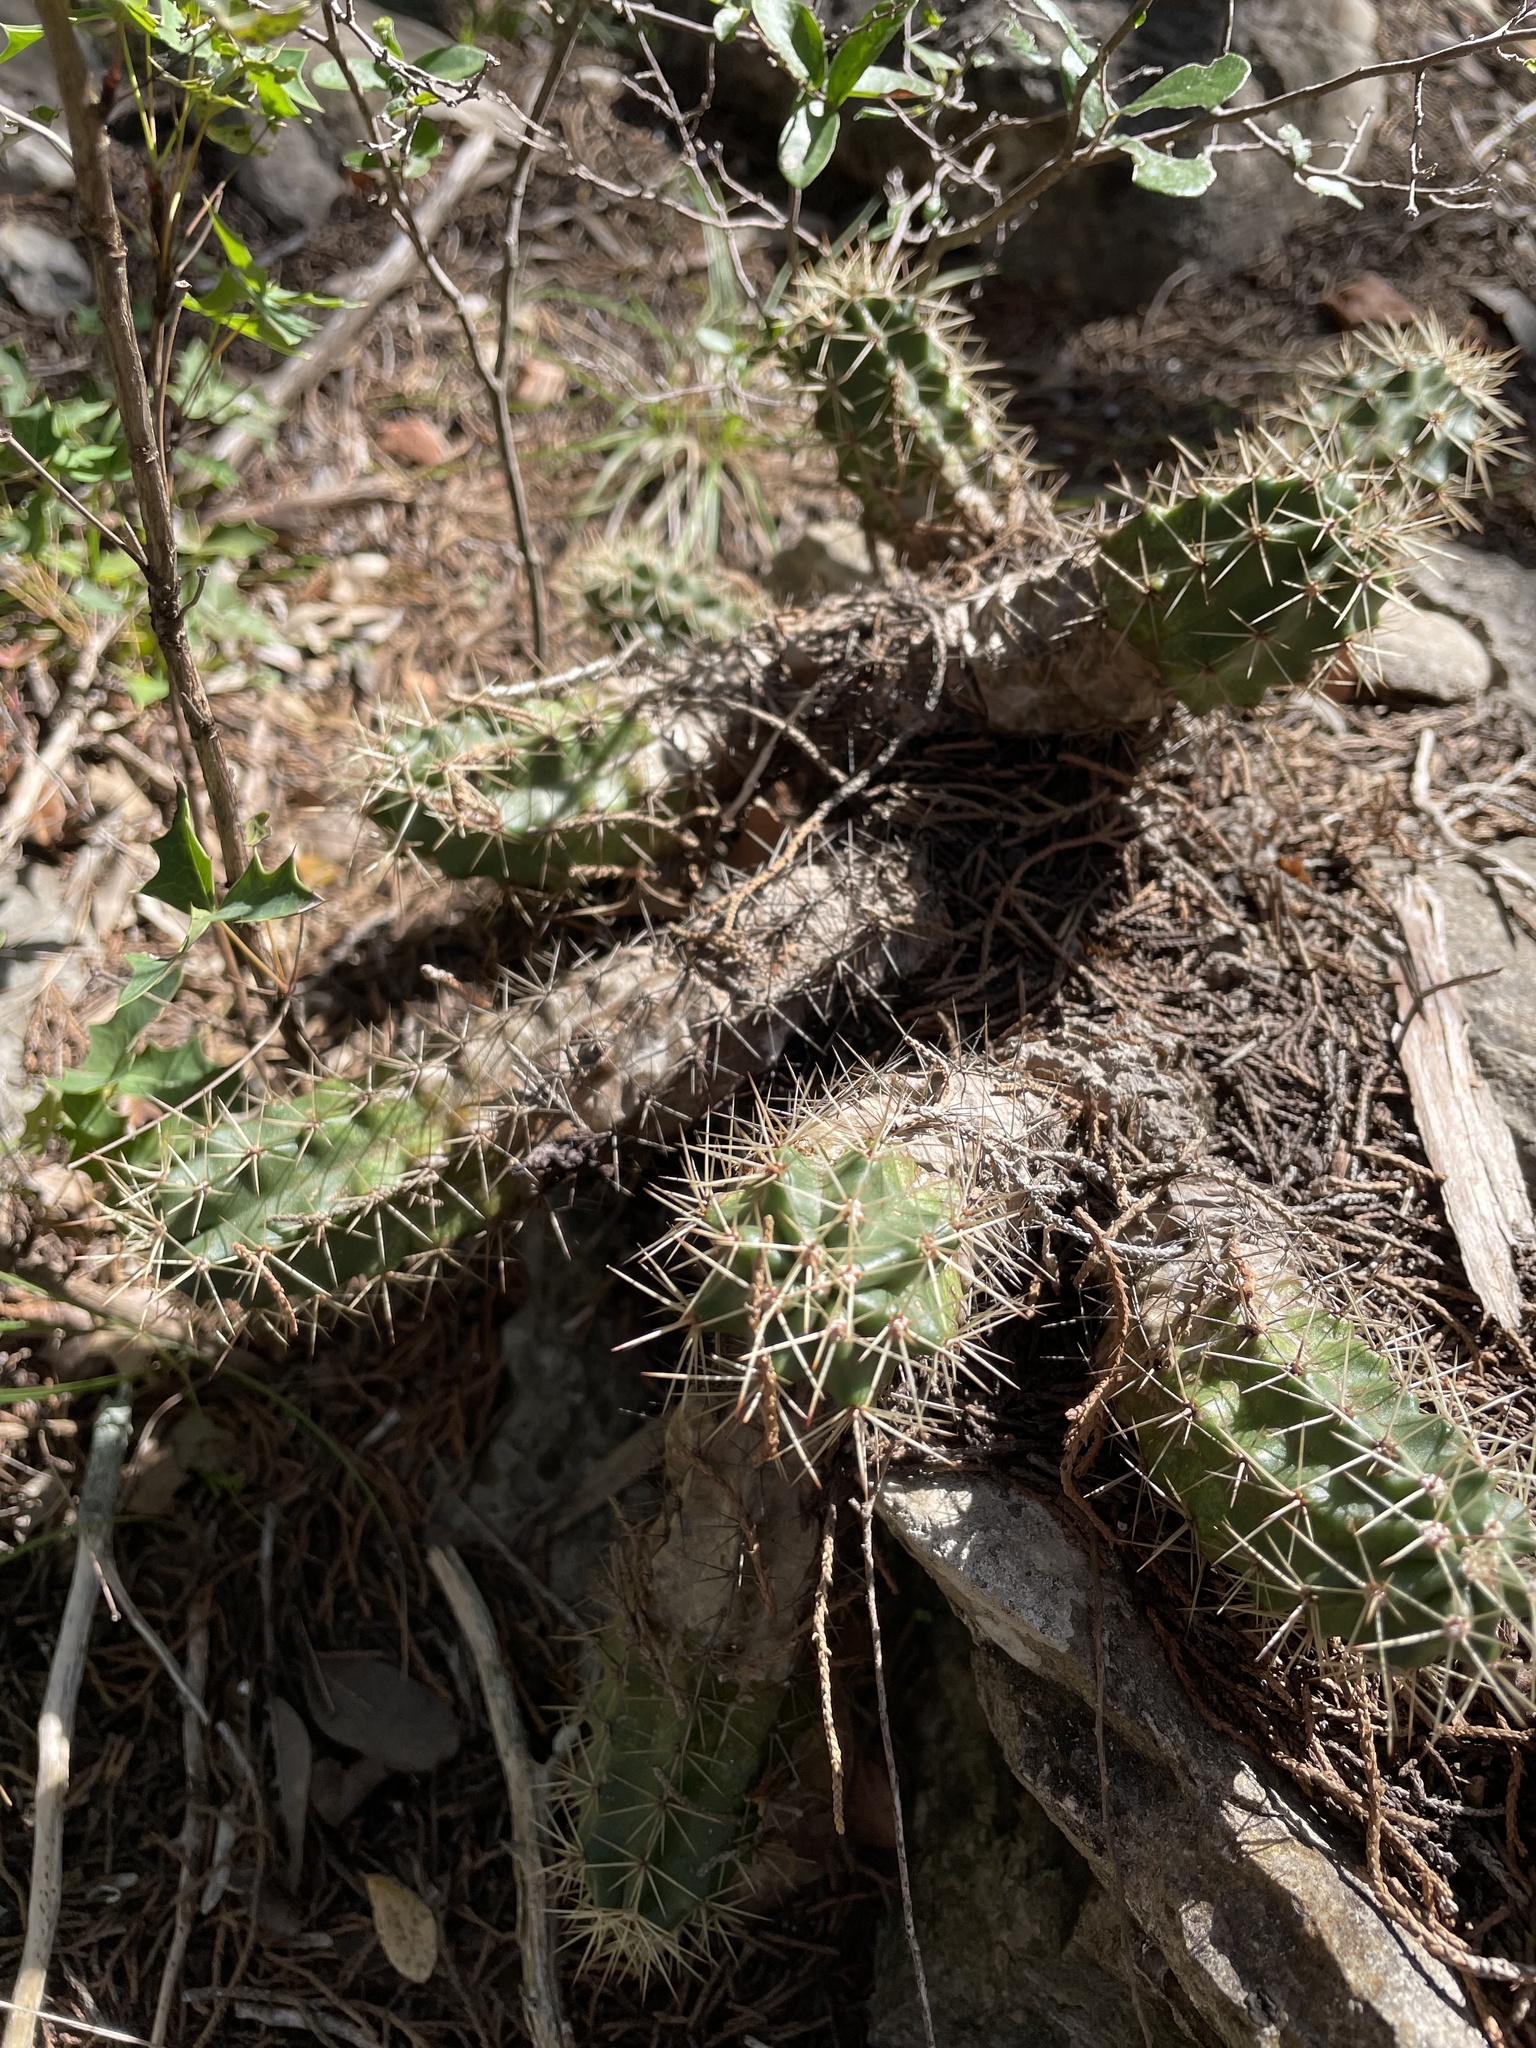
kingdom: Plantae
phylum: Tracheophyta
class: Magnoliopsida
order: Caryophyllales
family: Cactaceae
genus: Echinocereus
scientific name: Echinocereus coccineus
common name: Scarlet hedgehog cactus
